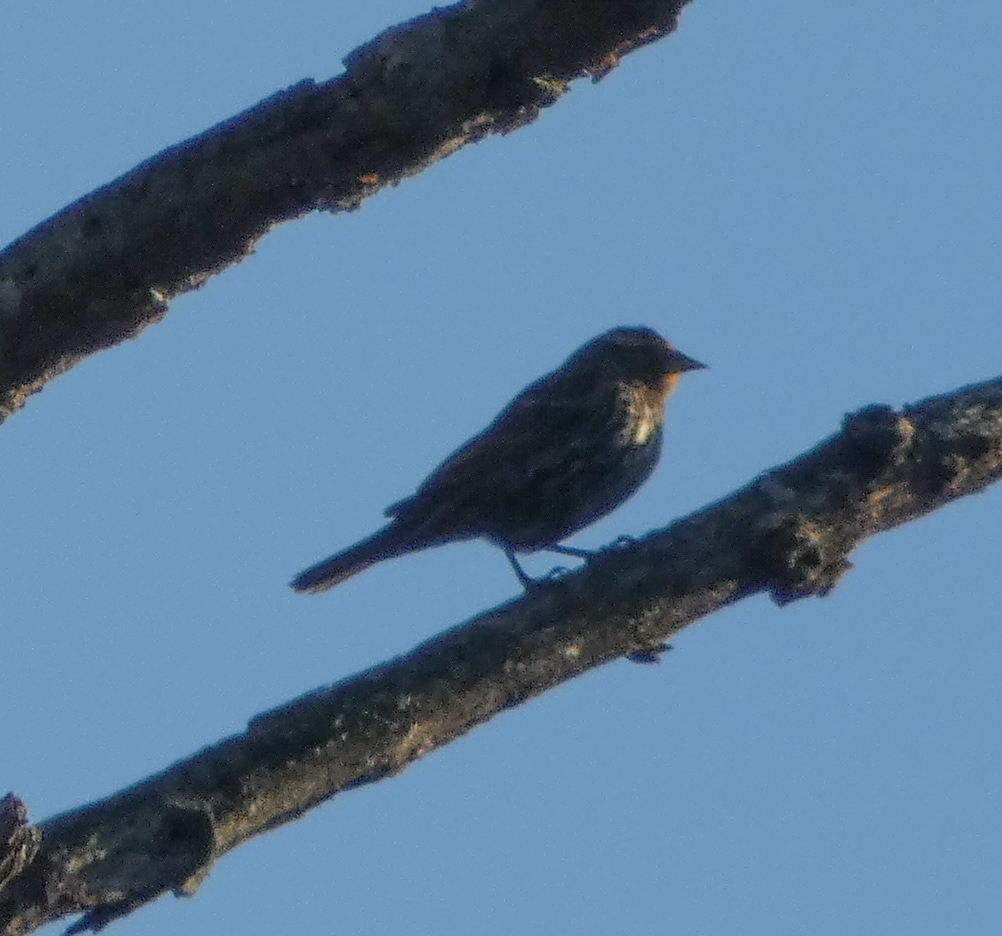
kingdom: Animalia
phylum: Chordata
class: Aves
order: Passeriformes
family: Icteridae
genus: Agelaius
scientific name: Agelaius phoeniceus
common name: Red-winged blackbird
